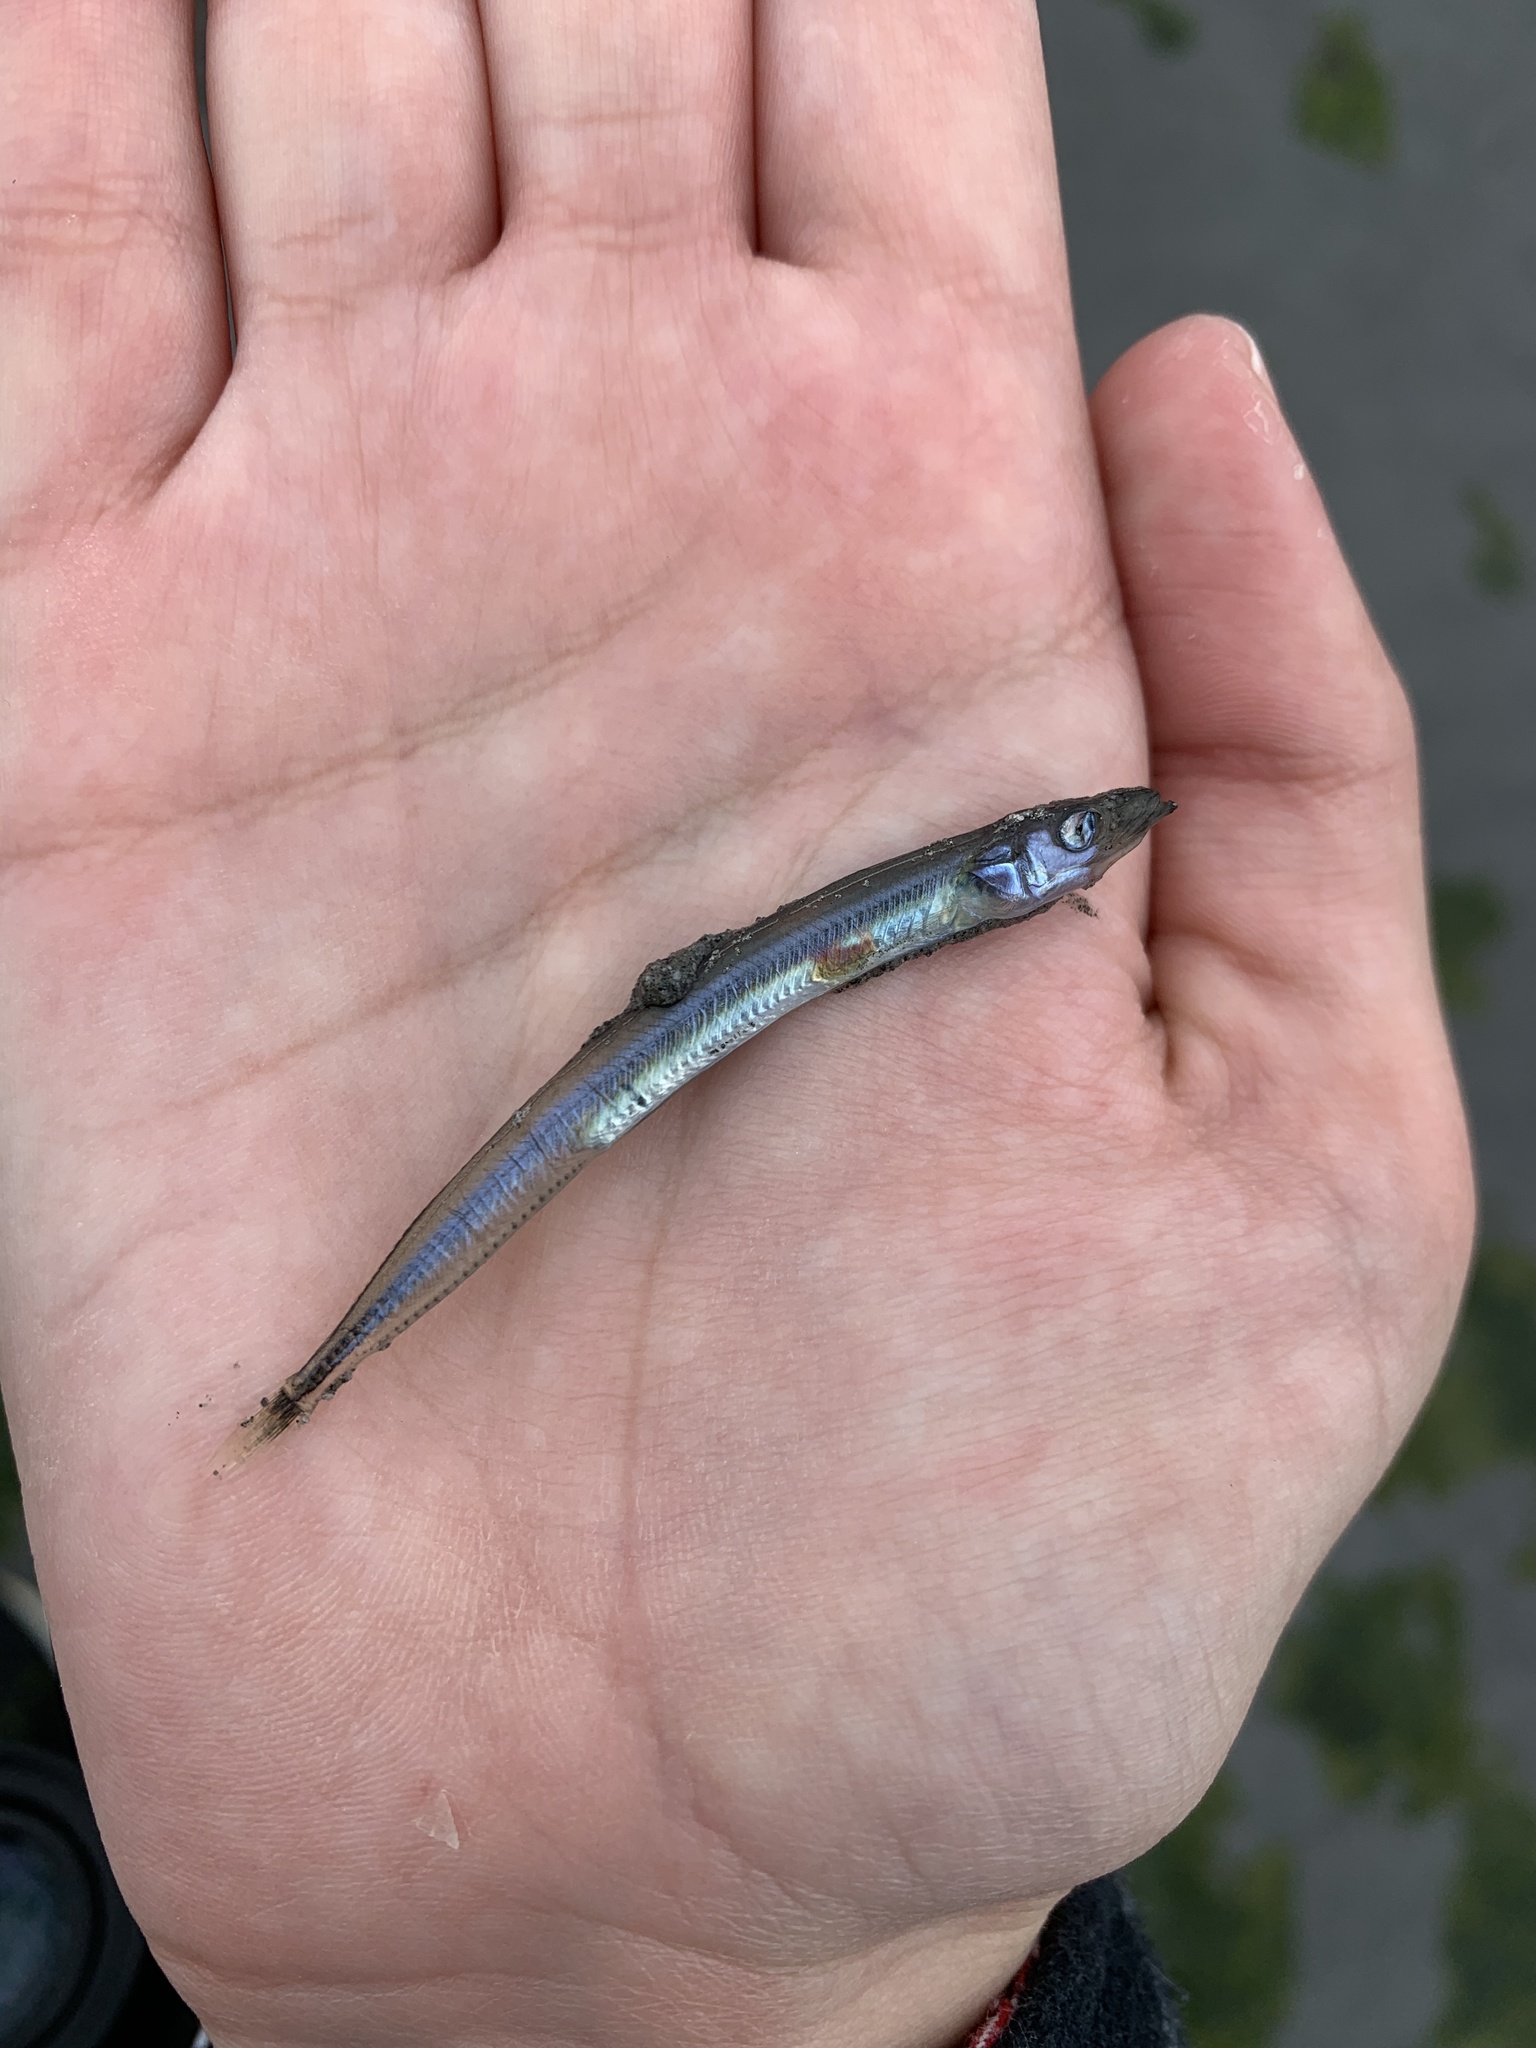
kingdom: Animalia
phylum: Chordata
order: Perciformes
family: Ammodytidae
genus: Ammodytes
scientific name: Ammodytes personatus
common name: Japanese sand lance
